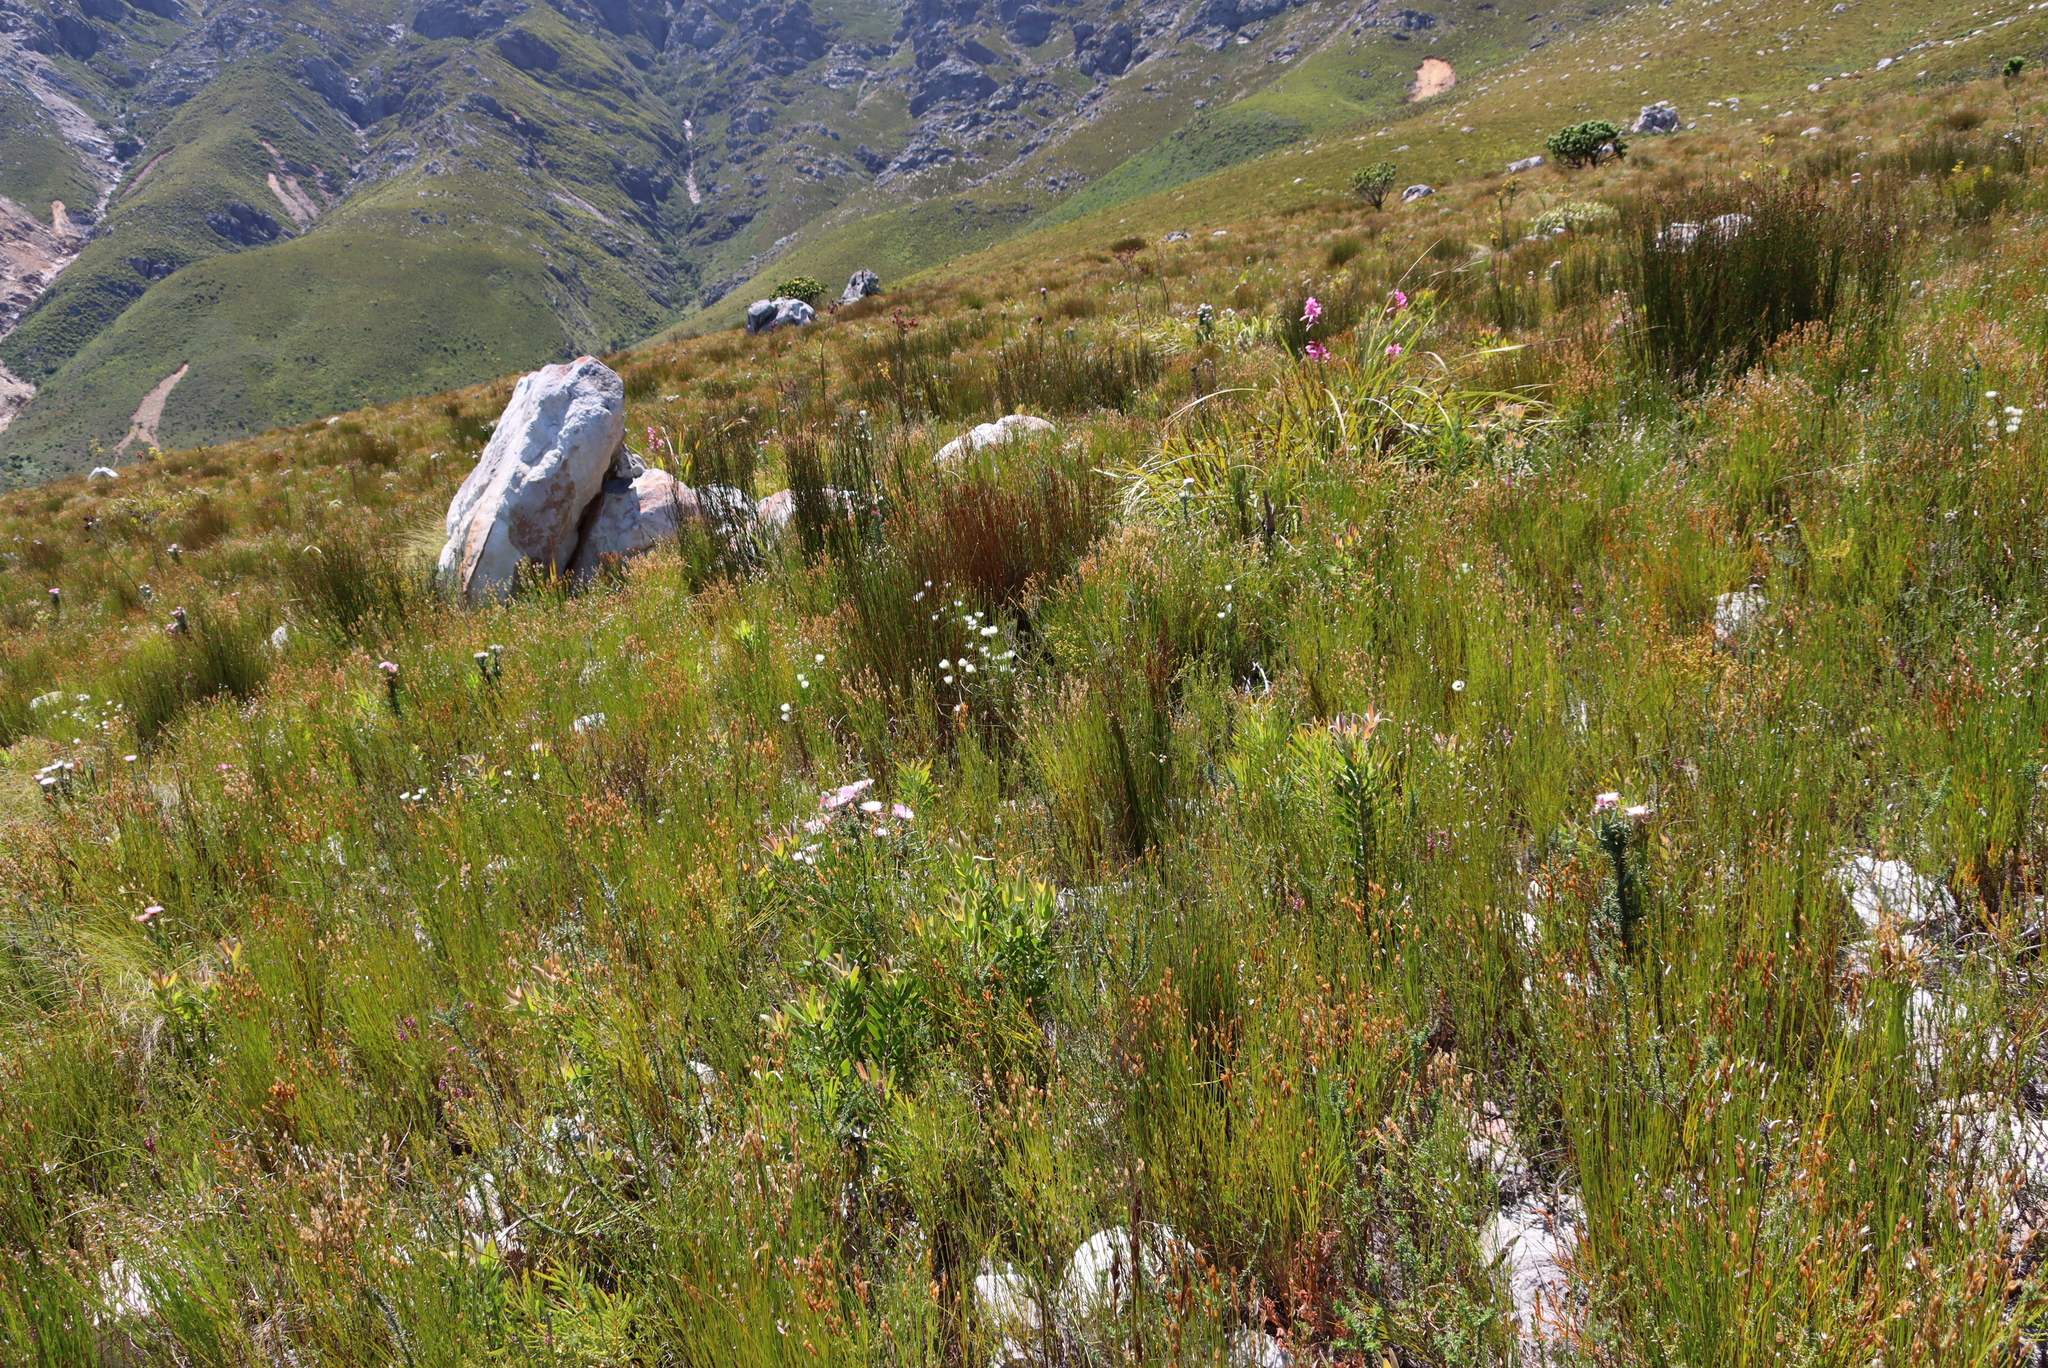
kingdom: Plantae
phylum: Tracheophyta
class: Magnoliopsida
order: Asterales
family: Asteraceae
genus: Edmondia
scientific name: Edmondia sesamoides
